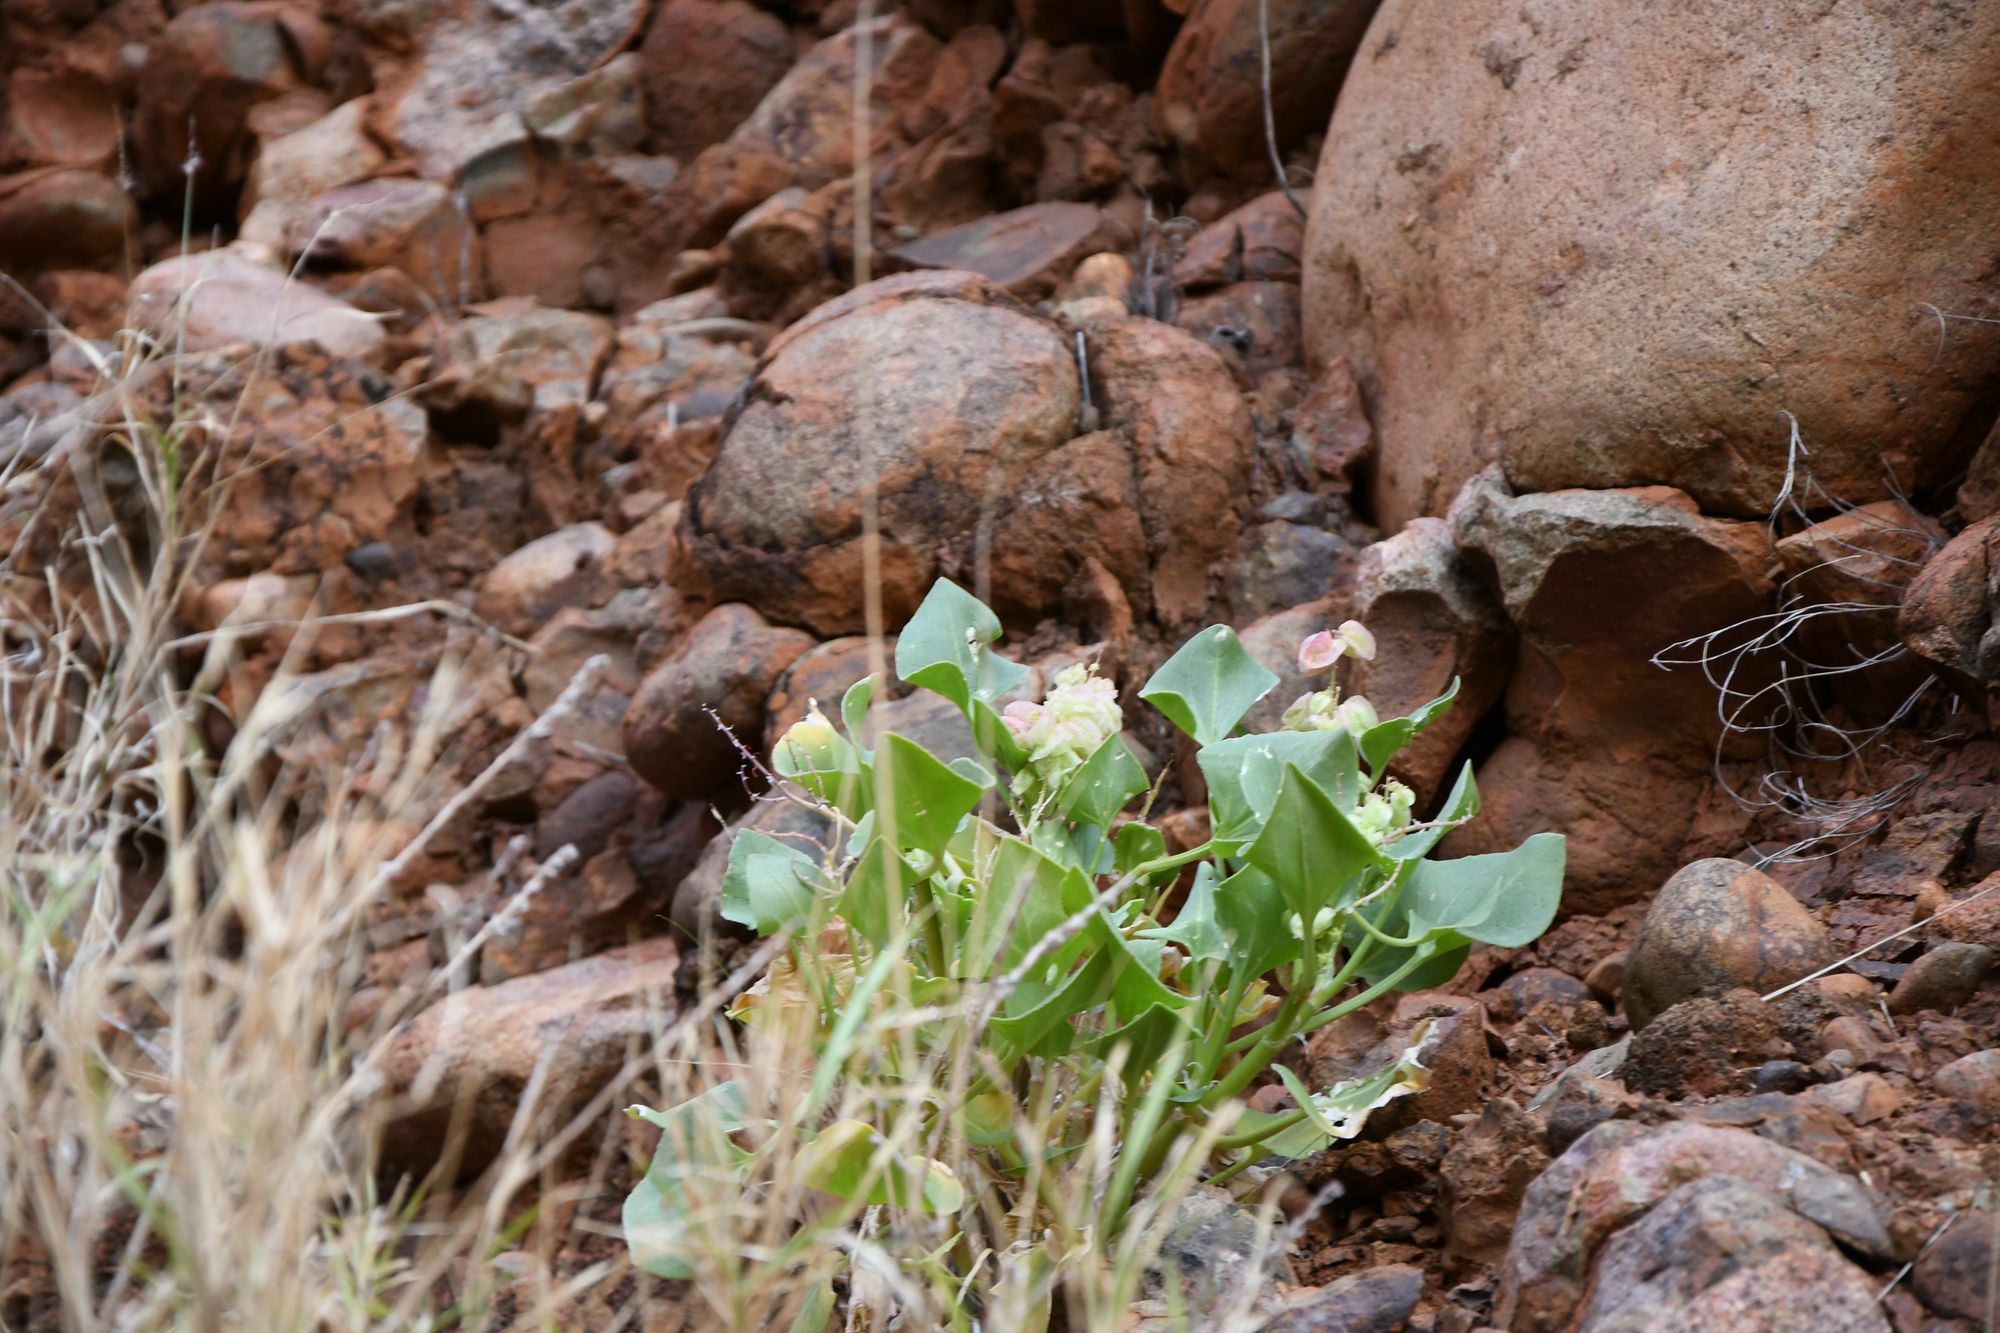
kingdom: Plantae
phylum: Tracheophyta
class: Magnoliopsida
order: Caryophyllales
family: Polygonaceae
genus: Rumex
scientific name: Rumex vesicarius
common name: Bladder dock
